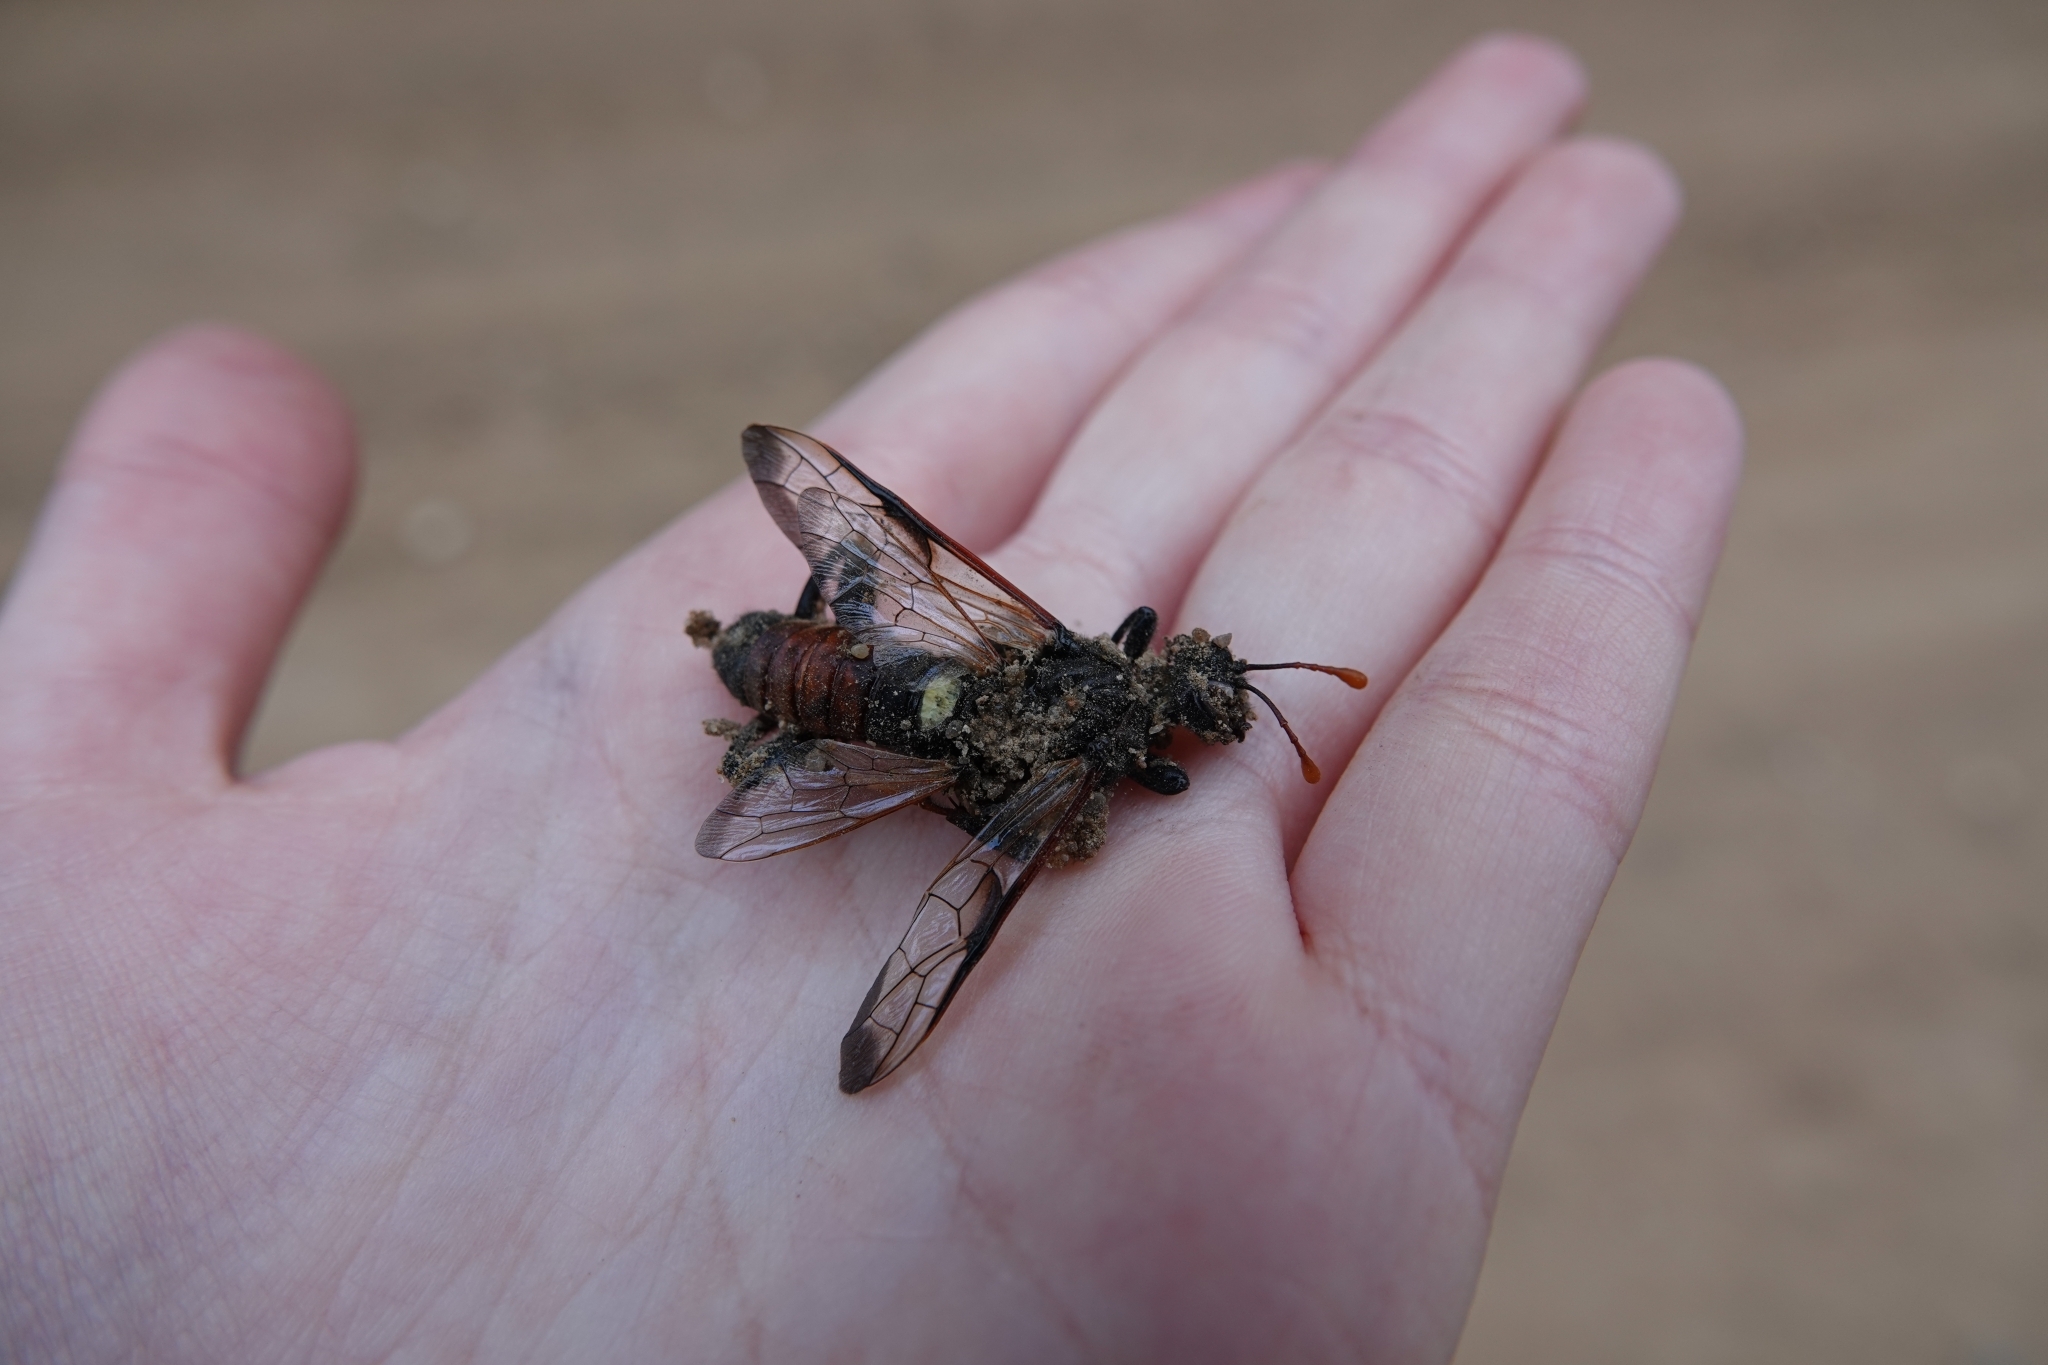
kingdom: Animalia
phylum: Arthropoda
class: Insecta
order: Hymenoptera
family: Cimbicidae
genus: Cimbex
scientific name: Cimbex femoratus
